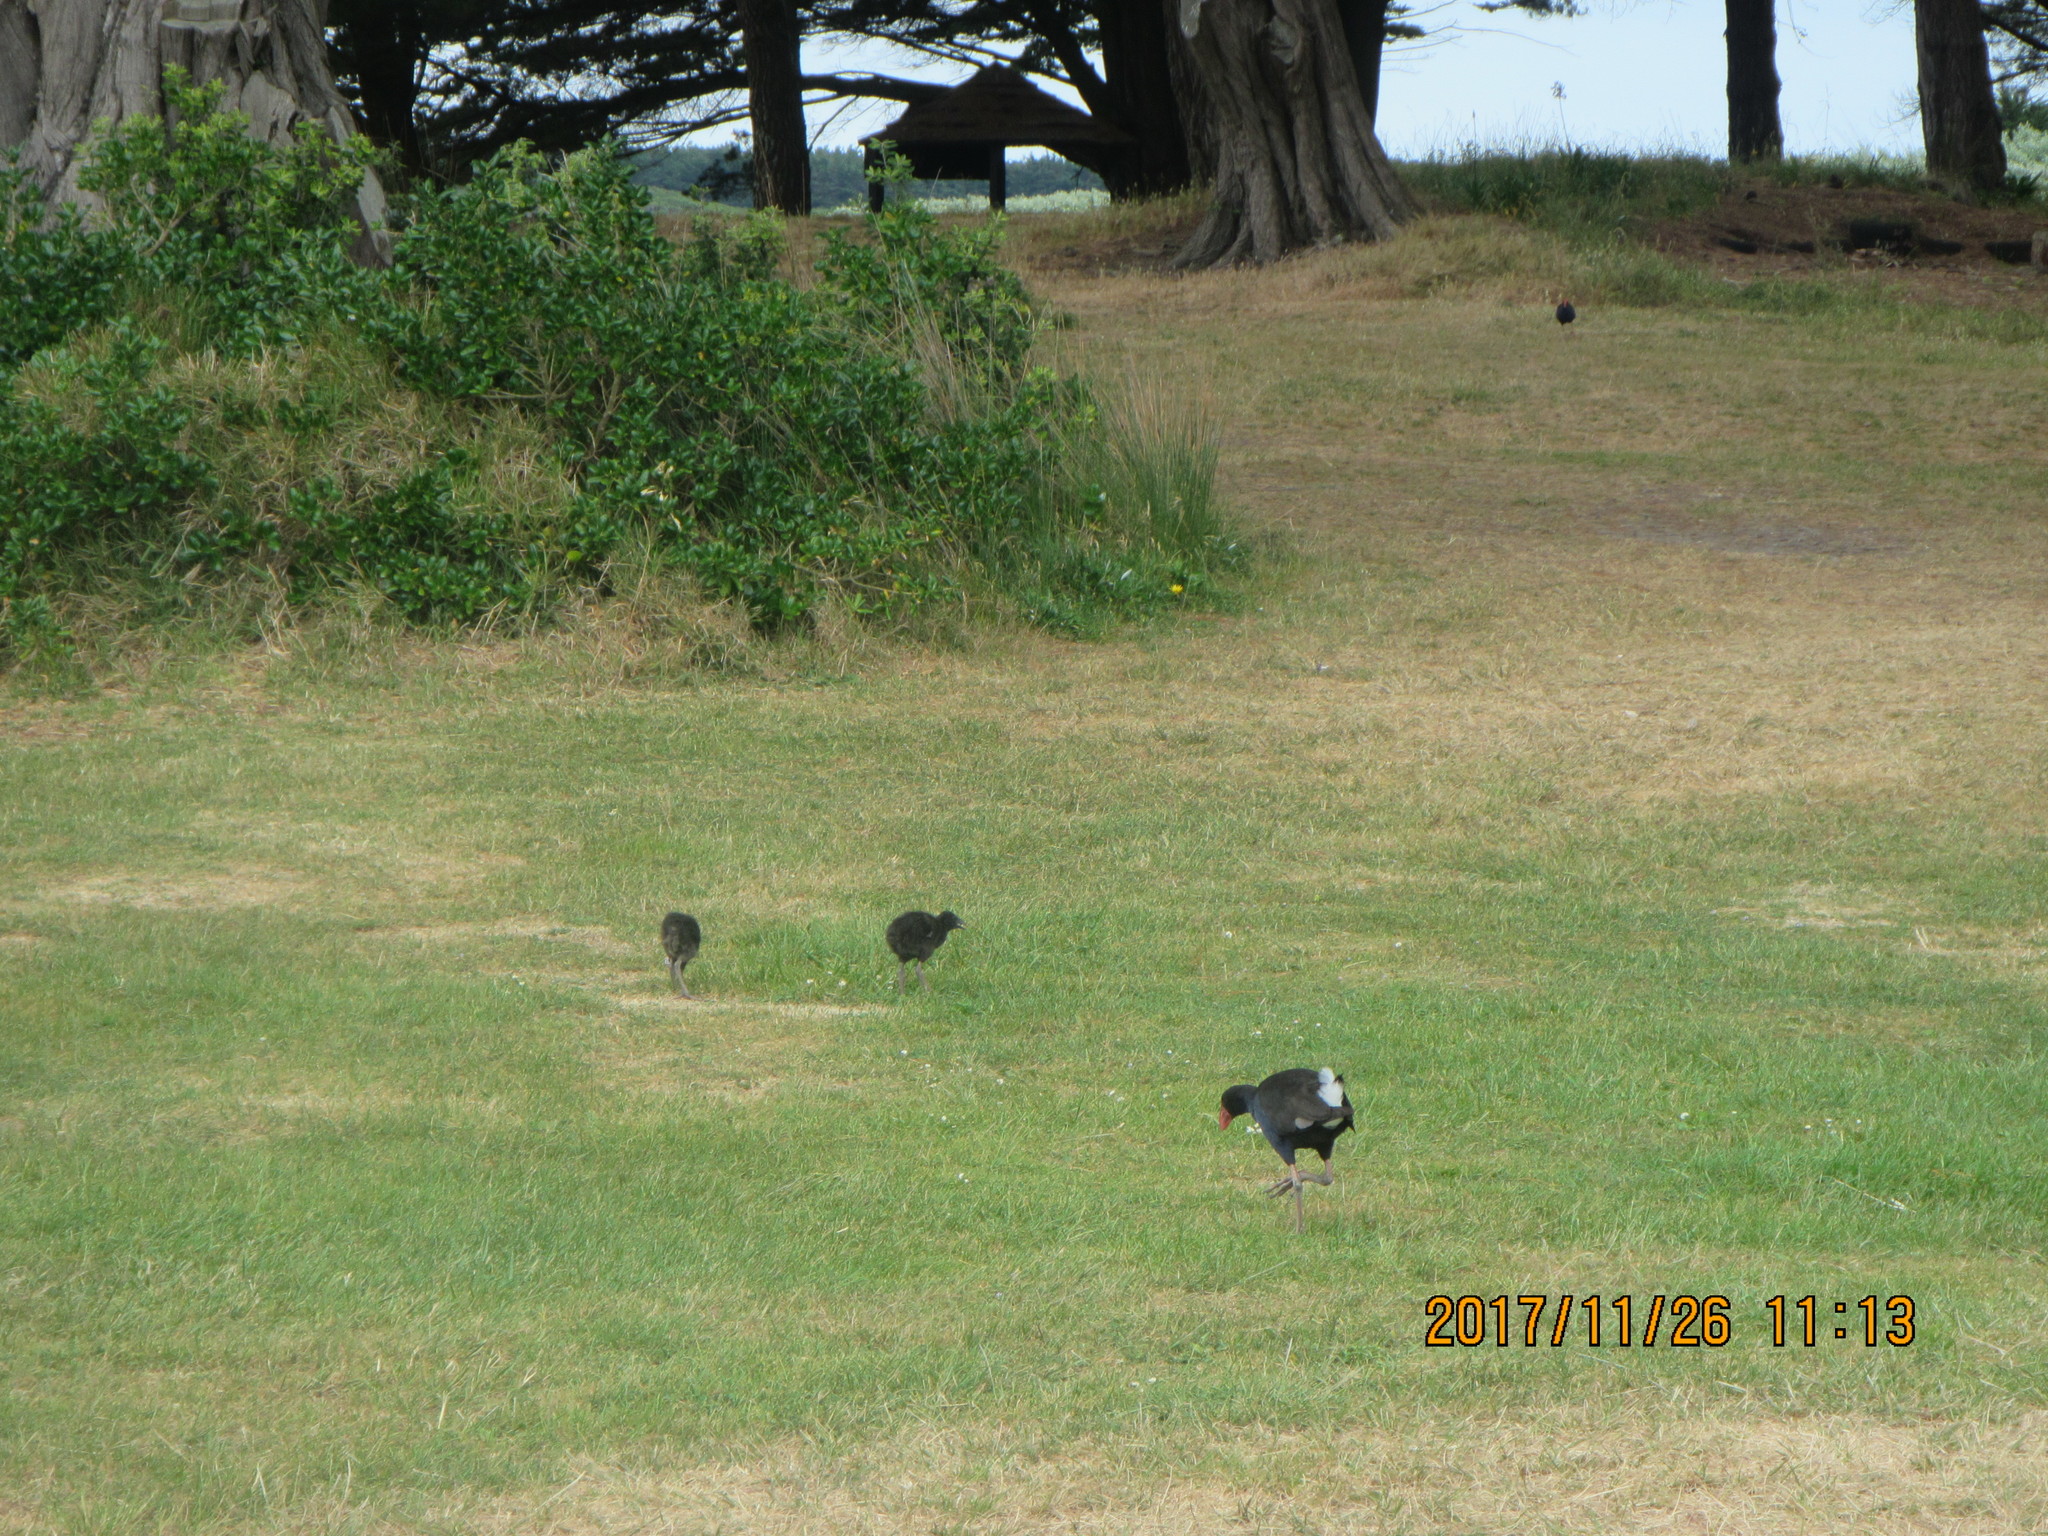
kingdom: Animalia
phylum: Chordata
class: Aves
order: Gruiformes
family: Rallidae
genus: Porphyrio
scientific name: Porphyrio melanotus
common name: Australasian swamphen
